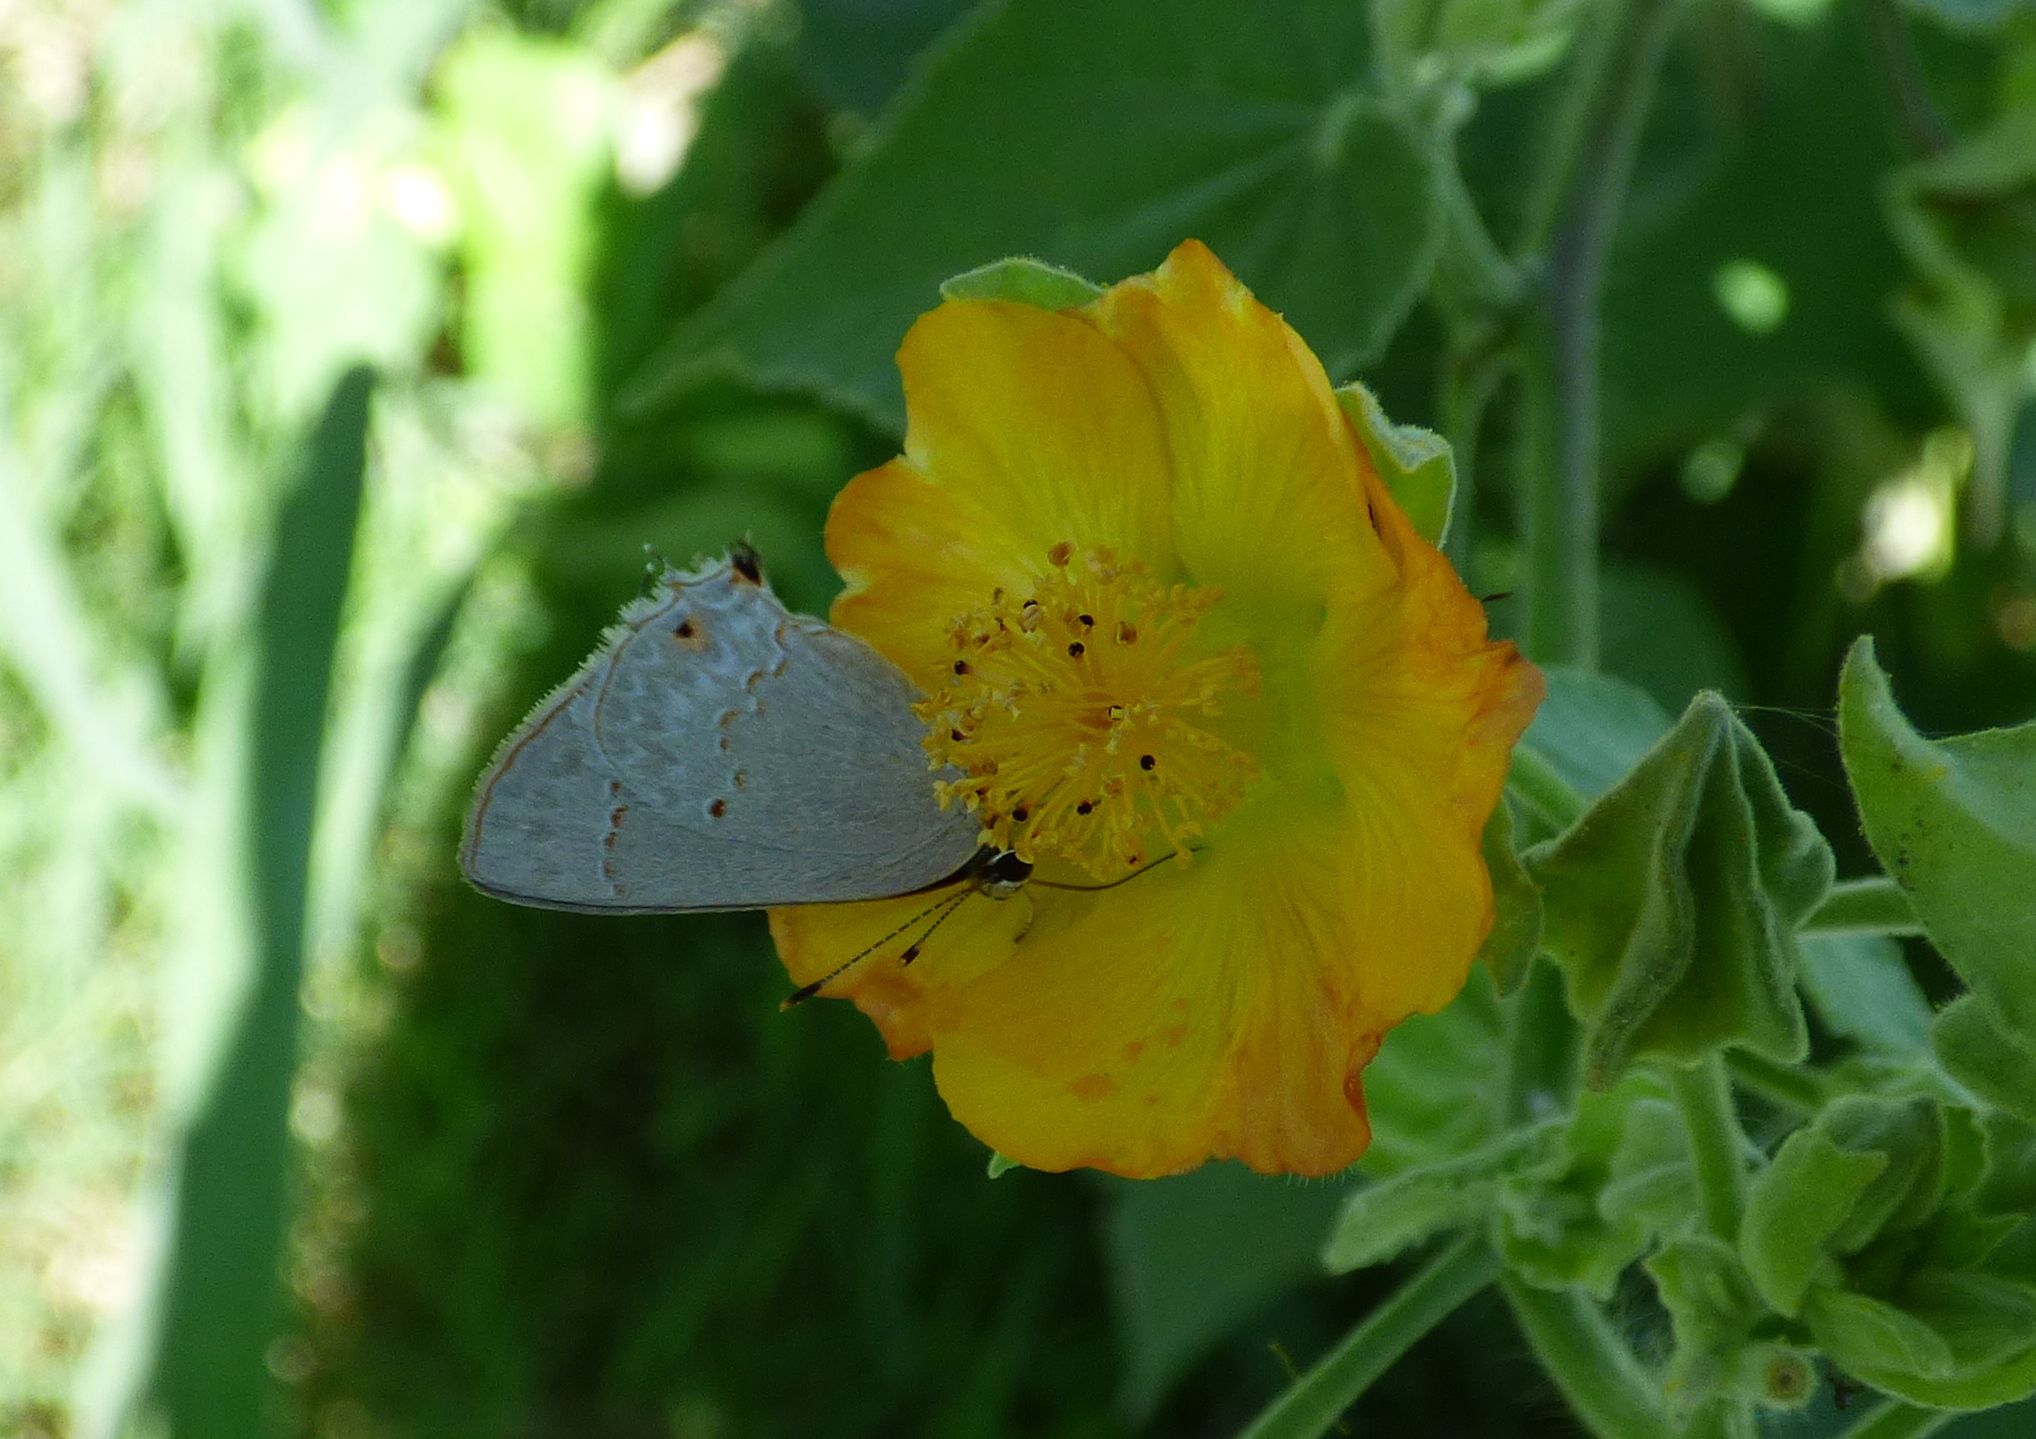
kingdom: Animalia
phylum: Arthropoda
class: Insecta
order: Lepidoptera
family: Lycaenidae
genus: Thecla
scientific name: Thecla rufofusca
